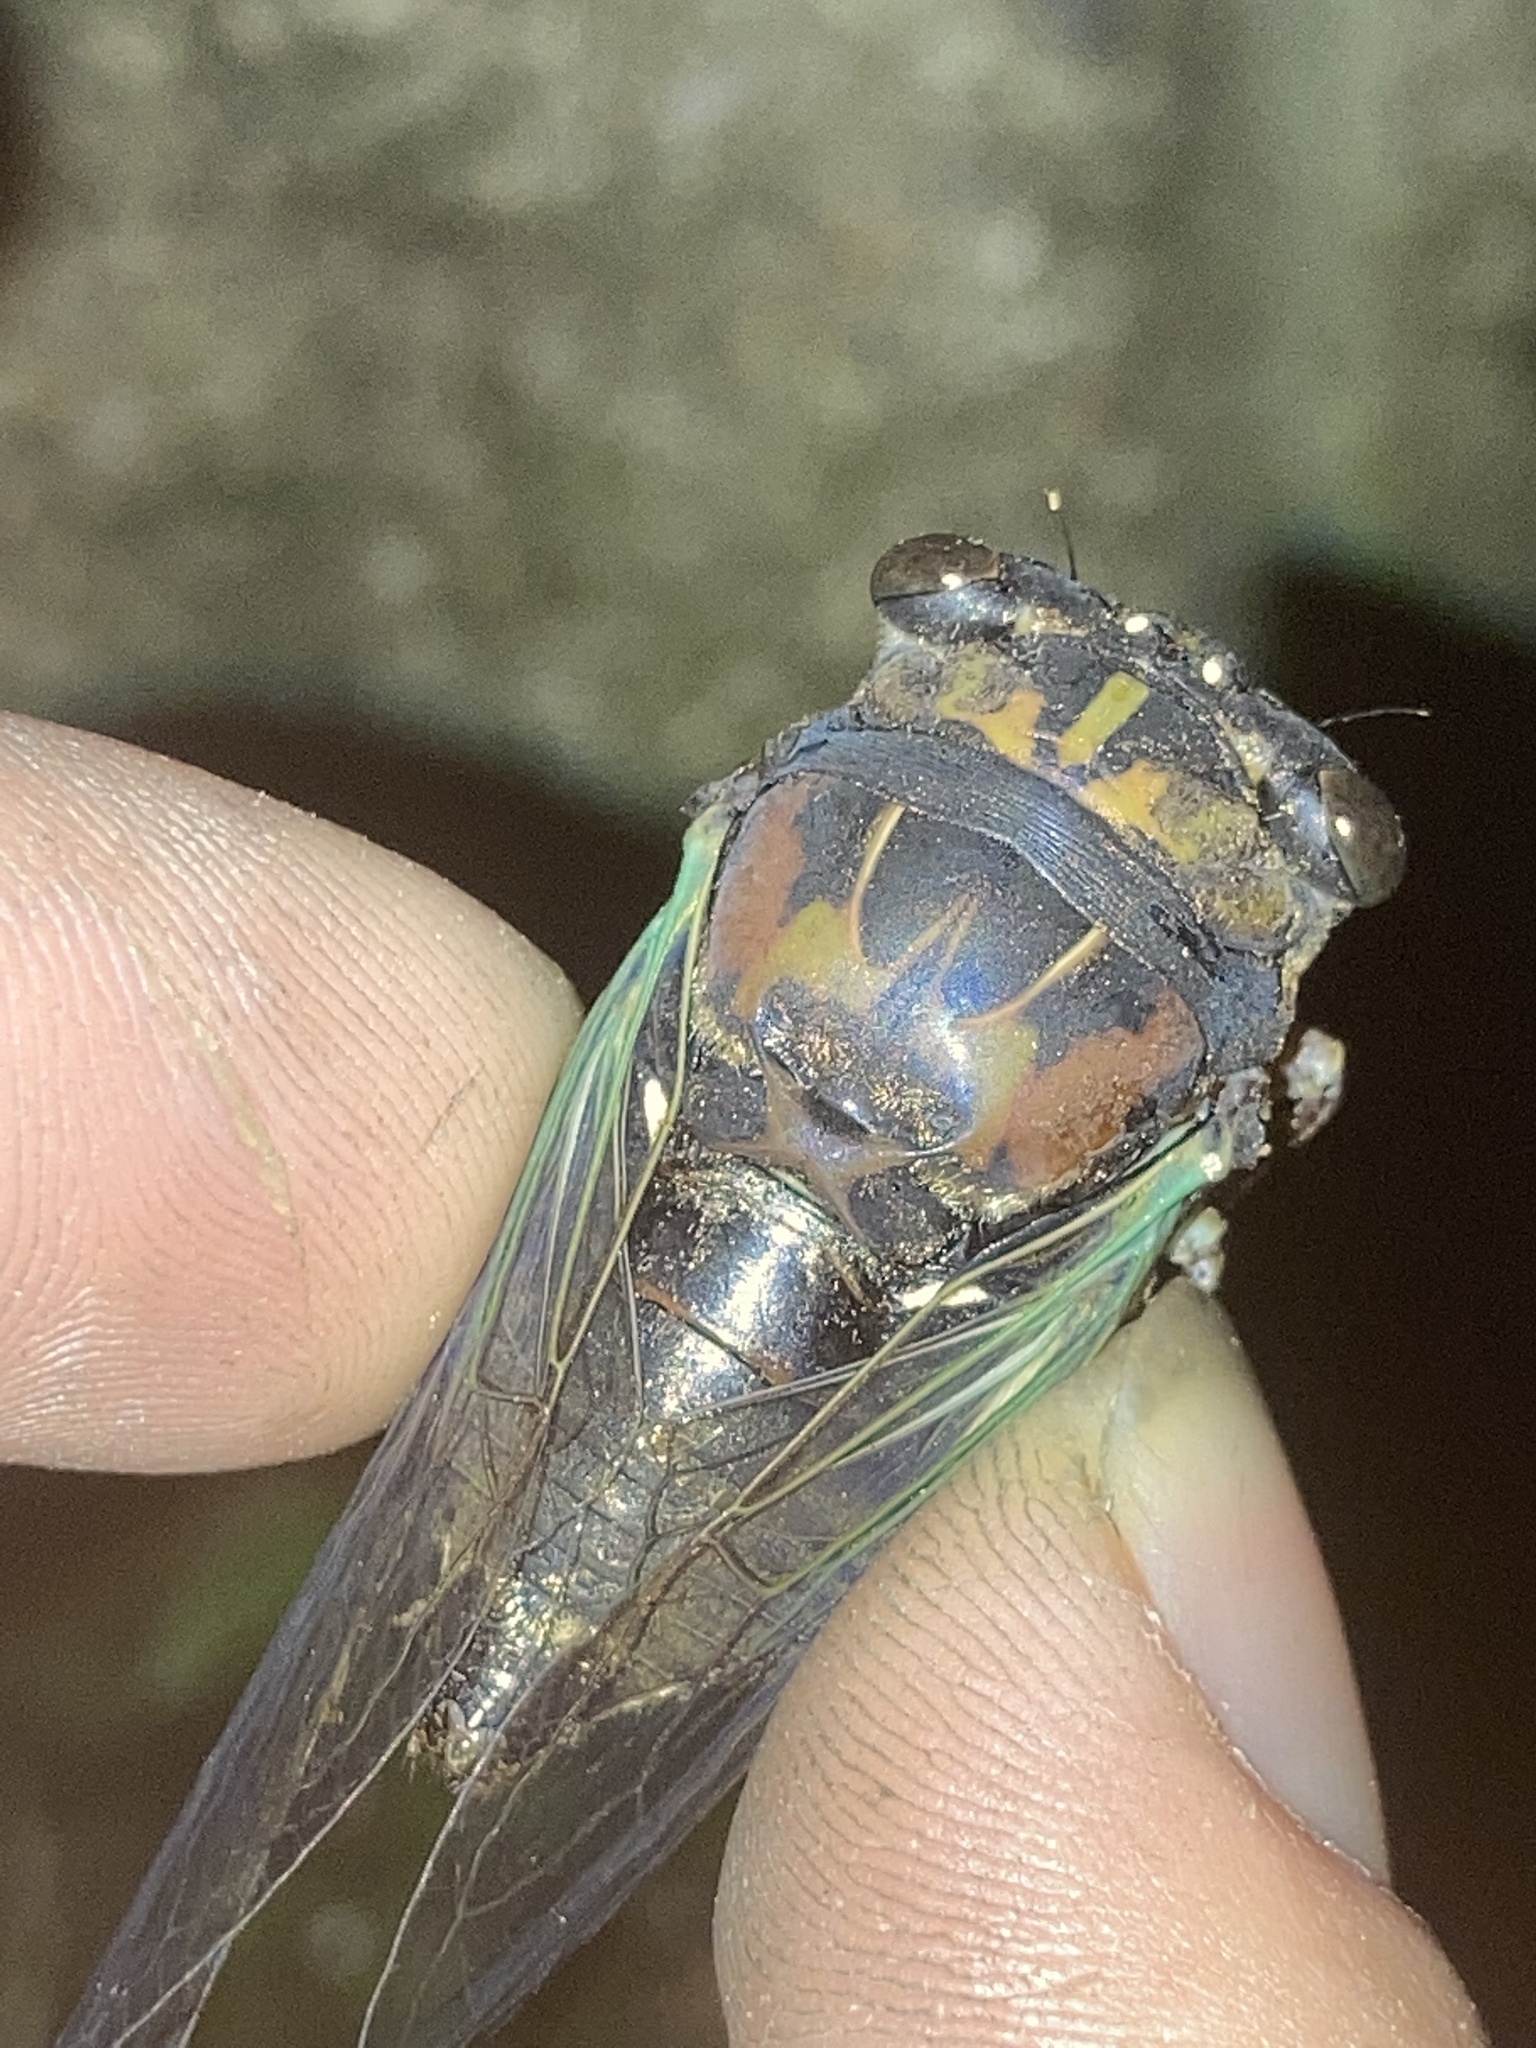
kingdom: Animalia
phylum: Arthropoda
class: Insecta
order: Hemiptera
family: Cicadidae
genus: Neotibicen
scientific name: Neotibicen lyricen
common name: Lyric cicada
